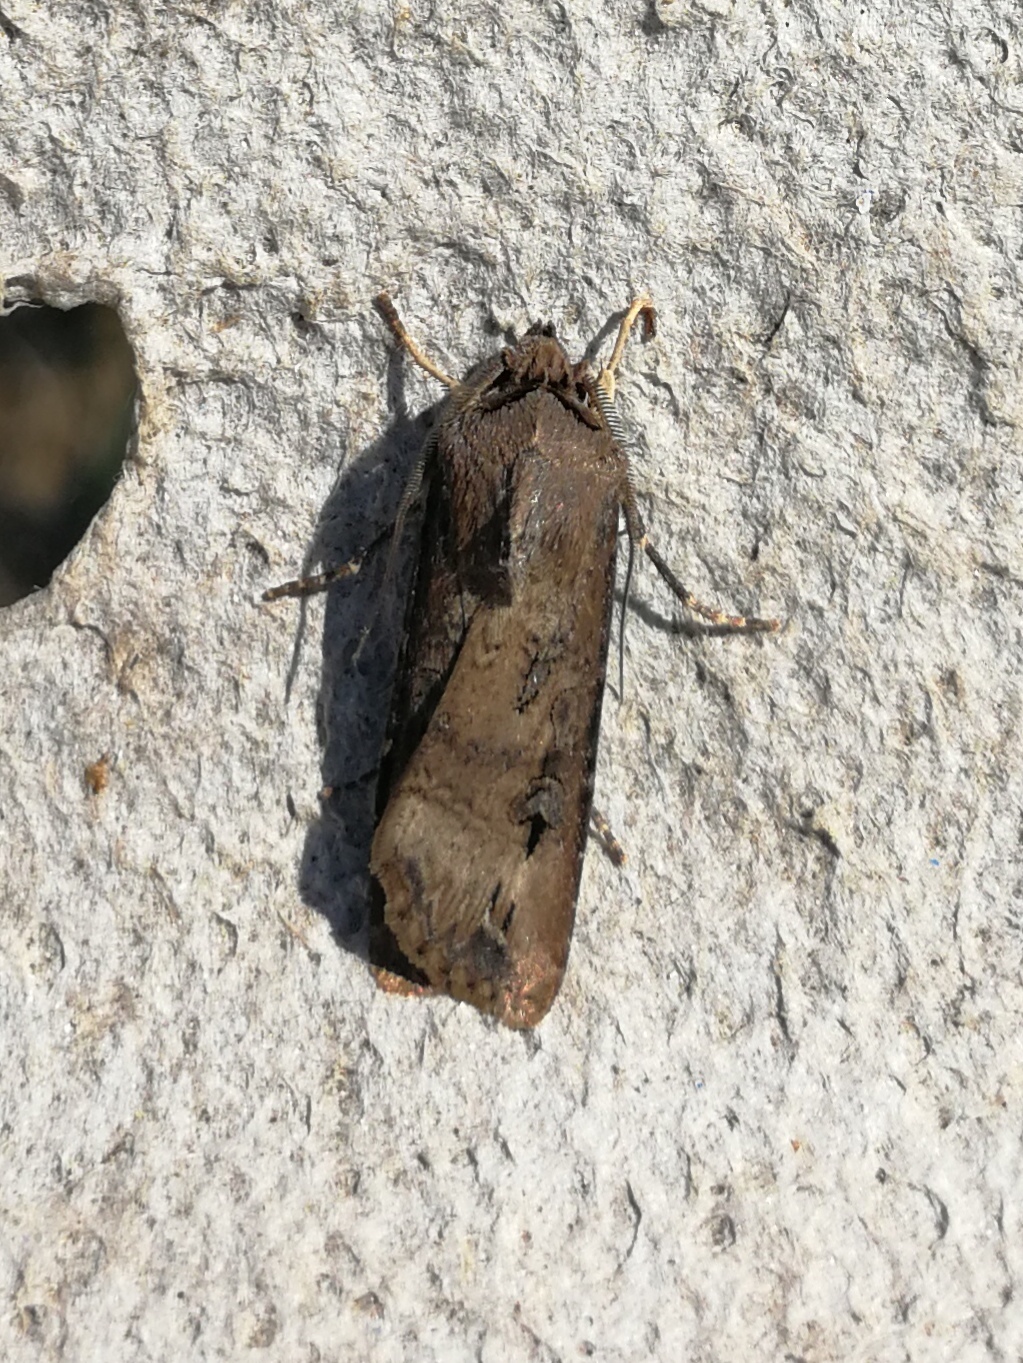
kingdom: Animalia
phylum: Arthropoda
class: Insecta
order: Lepidoptera
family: Noctuidae
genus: Agrotis
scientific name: Agrotis ipsilon
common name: Dark sword-grass
